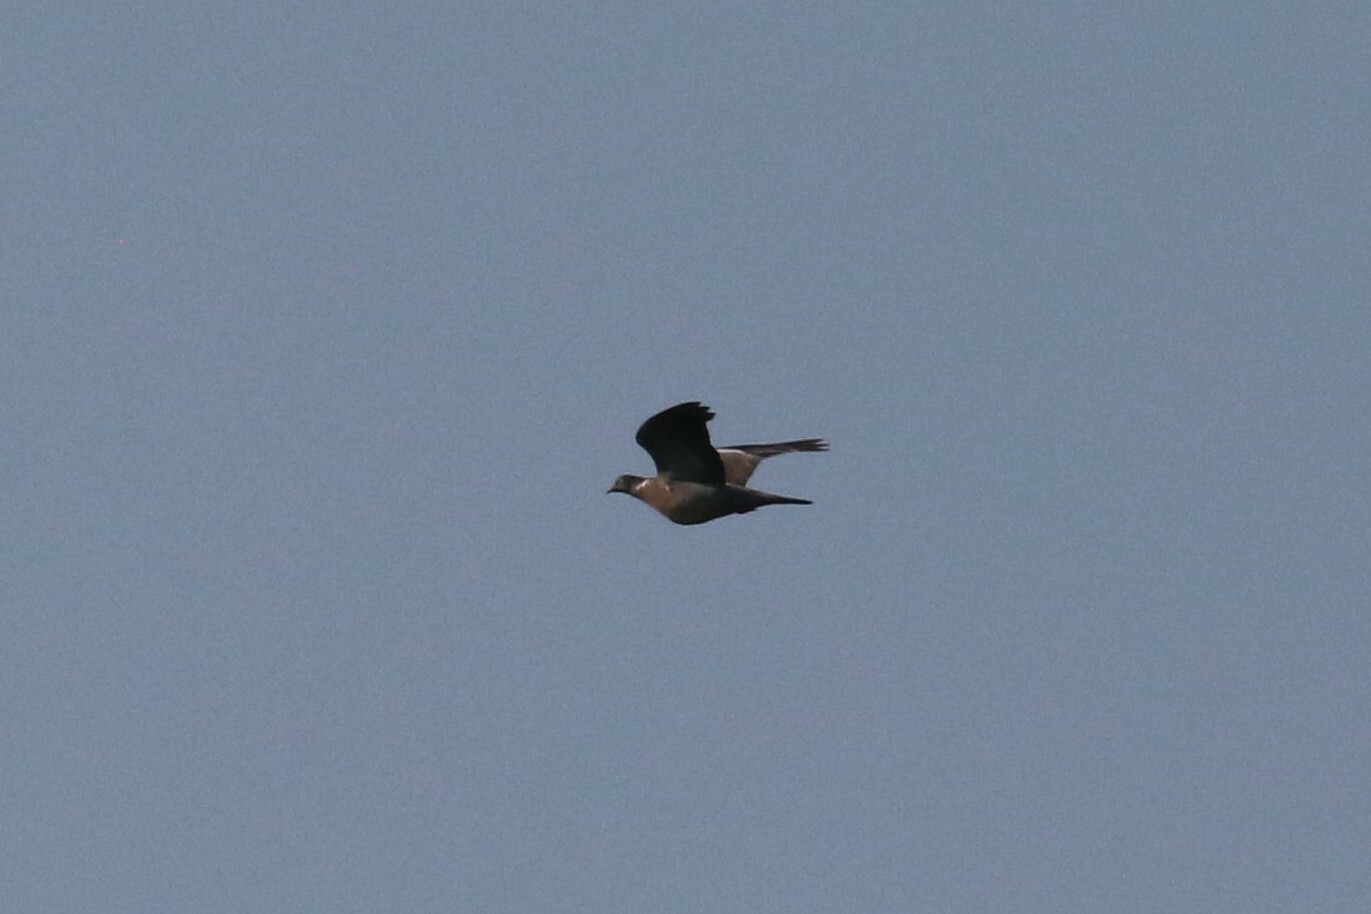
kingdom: Animalia
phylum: Chordata
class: Aves
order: Columbiformes
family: Columbidae
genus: Columba
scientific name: Columba palumbus
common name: Common wood pigeon
